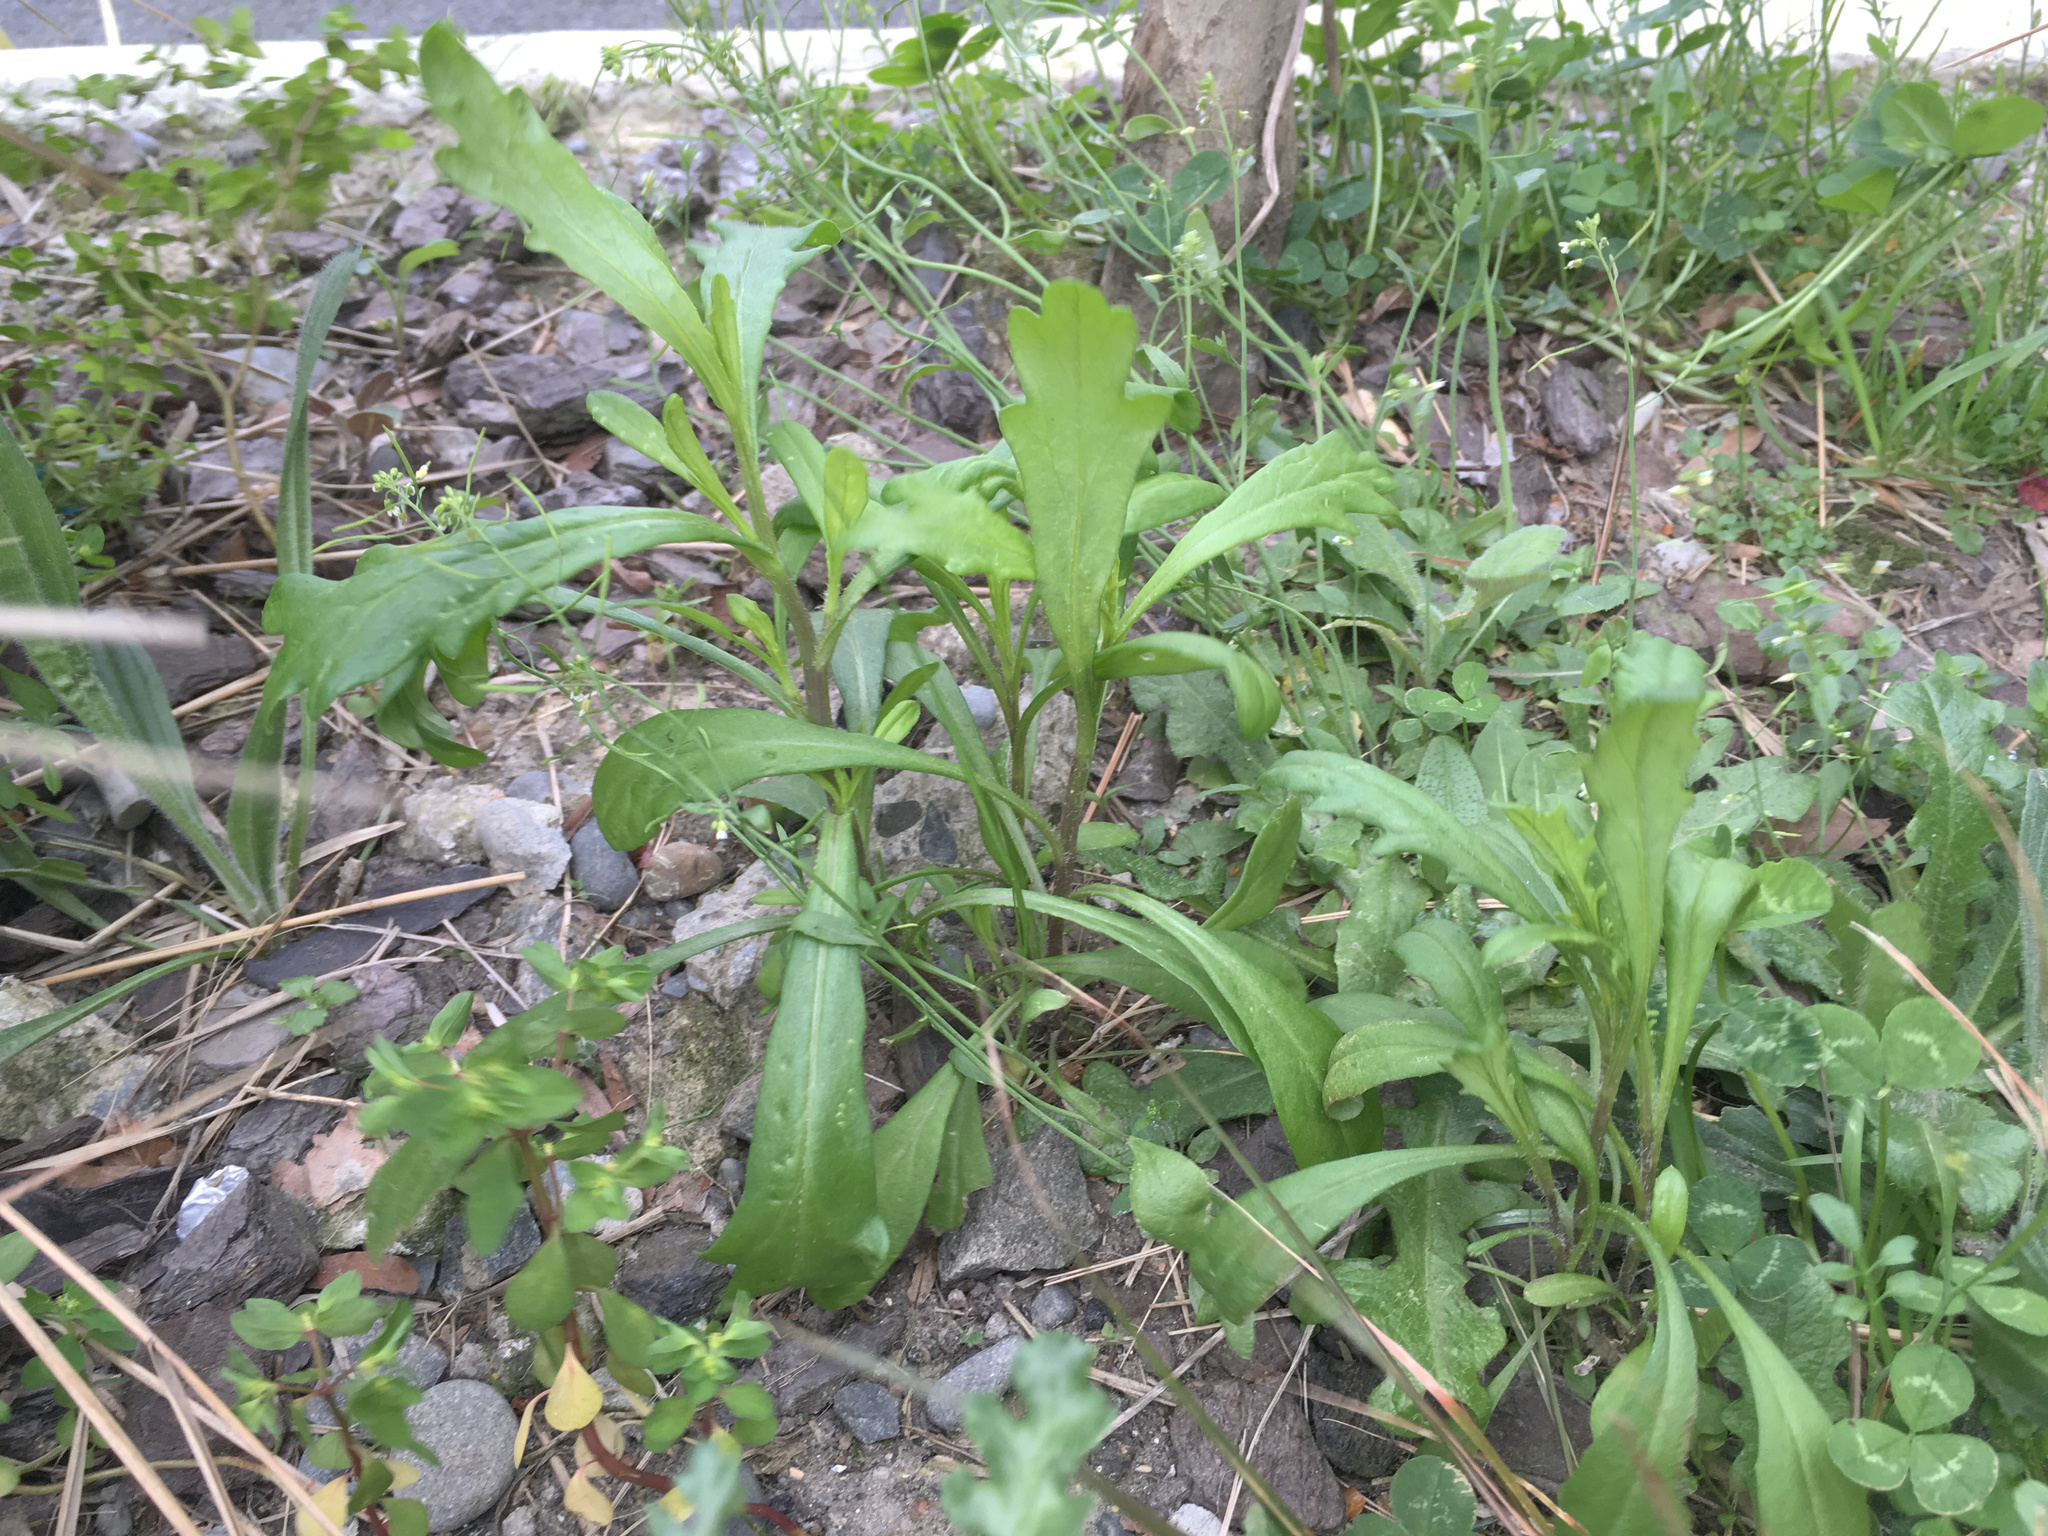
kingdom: Plantae
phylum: Tracheophyta
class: Magnoliopsida
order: Asterales
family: Asteraceae
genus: Senecio
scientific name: Senecio skirrhodon
